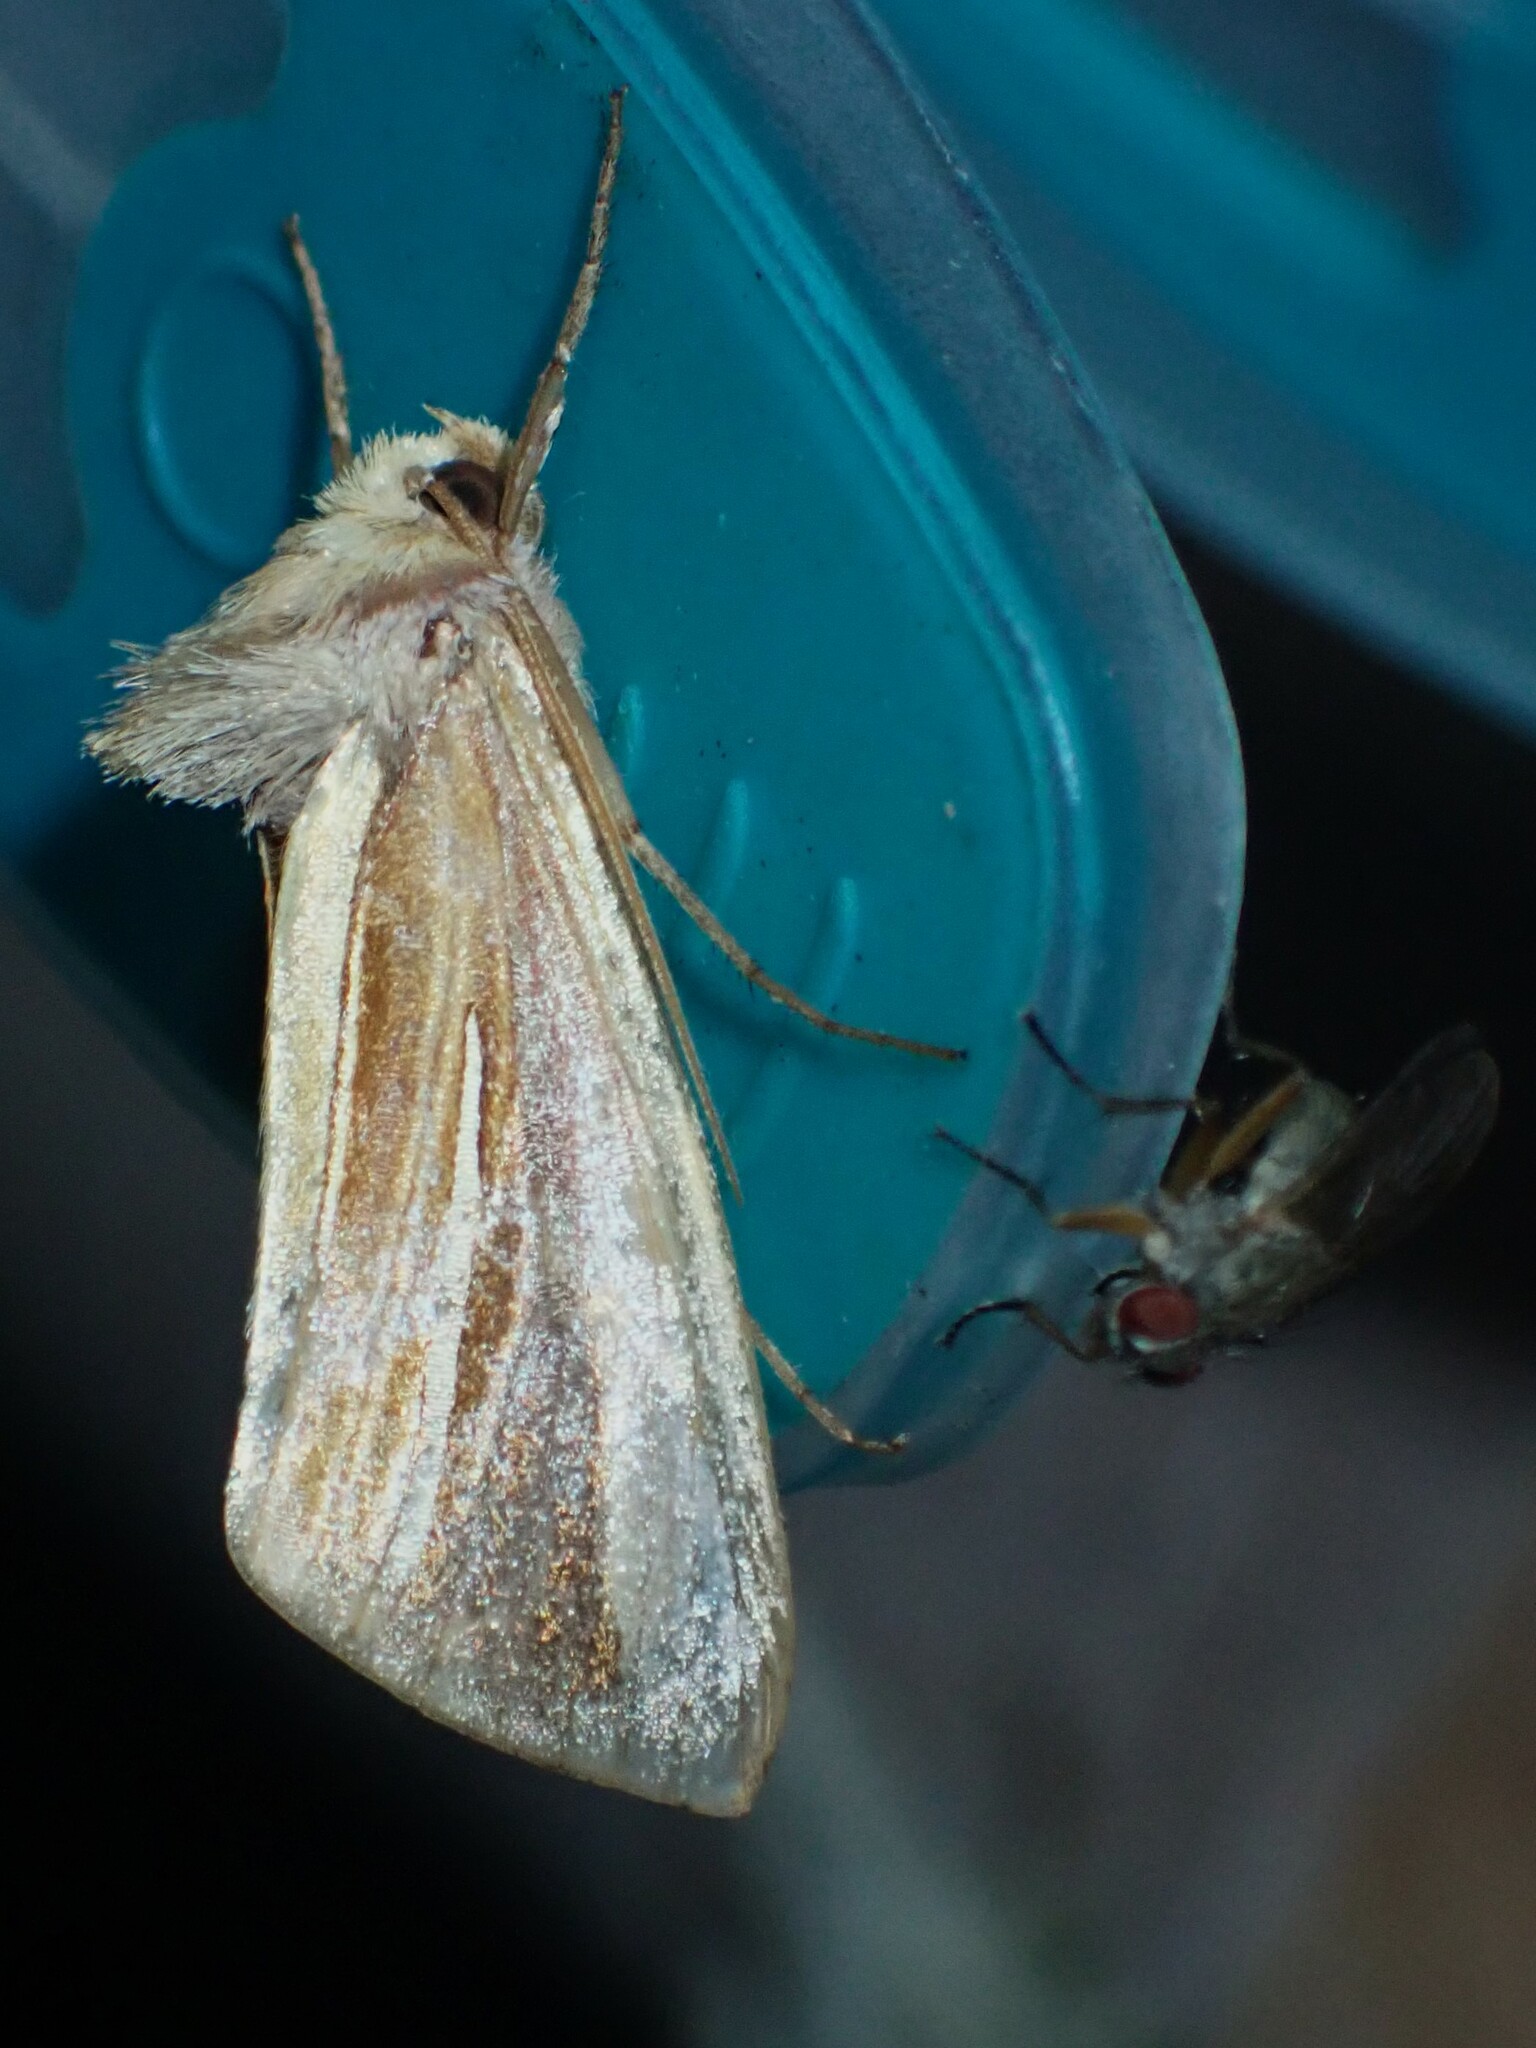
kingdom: Animalia
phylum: Arthropoda
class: Insecta
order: Lepidoptera
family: Noctuidae
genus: Plusia
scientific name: Plusia venusta
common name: White-streaked looper moth
